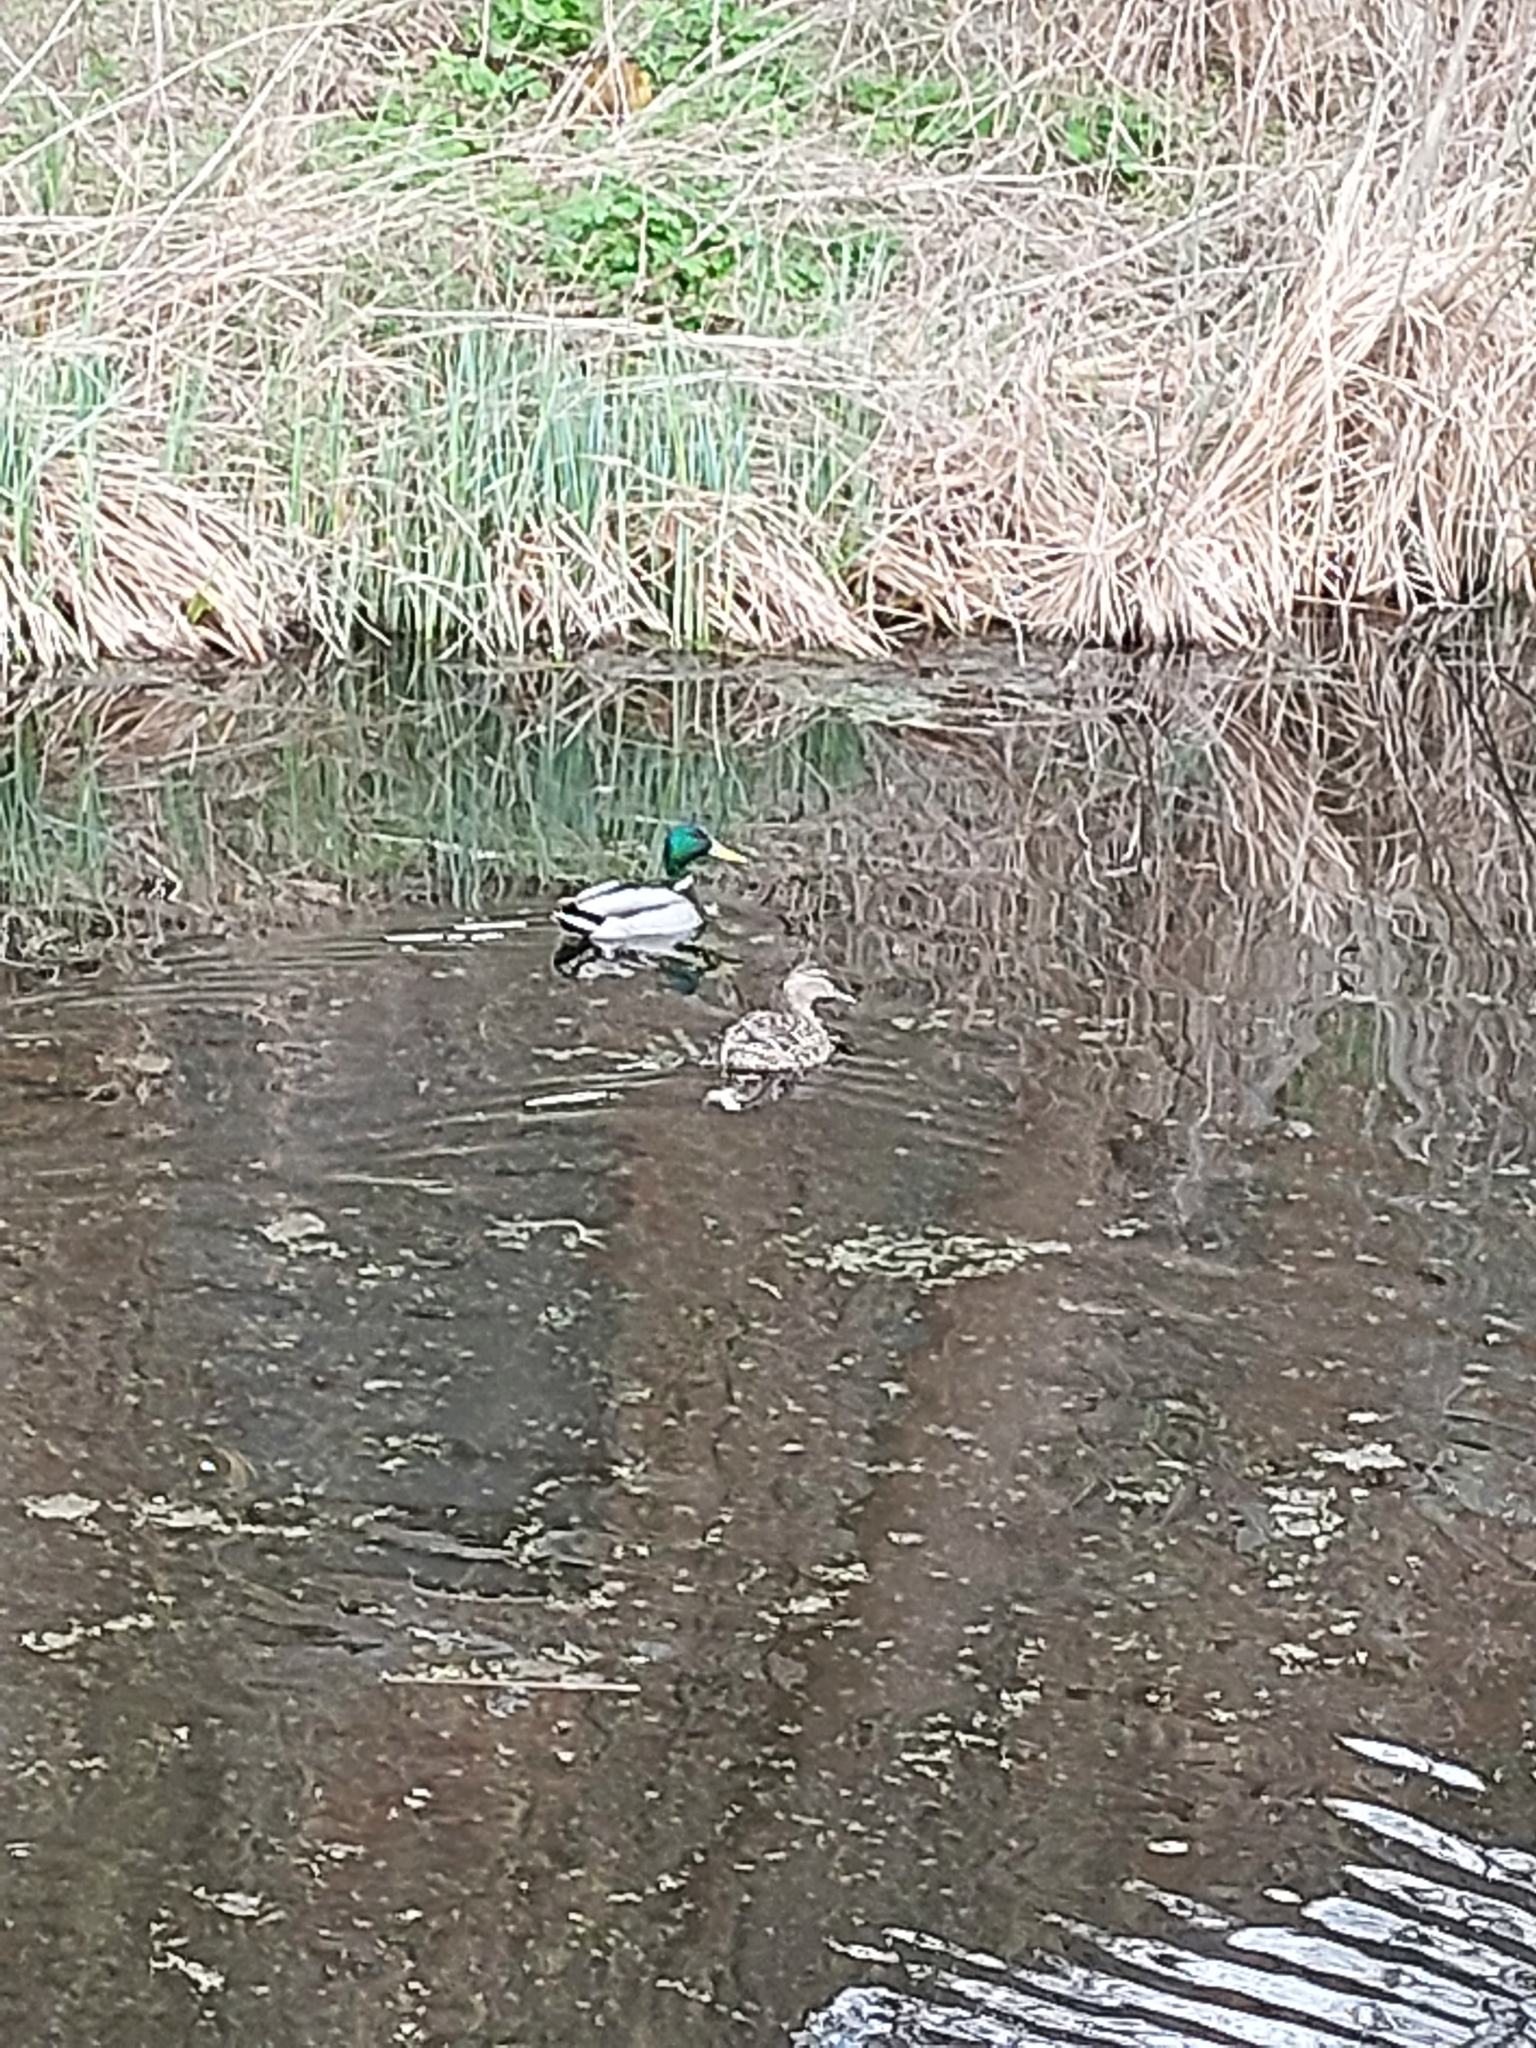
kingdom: Animalia
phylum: Chordata
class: Aves
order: Anseriformes
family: Anatidae
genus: Anas
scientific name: Anas platyrhynchos
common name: Mallard
